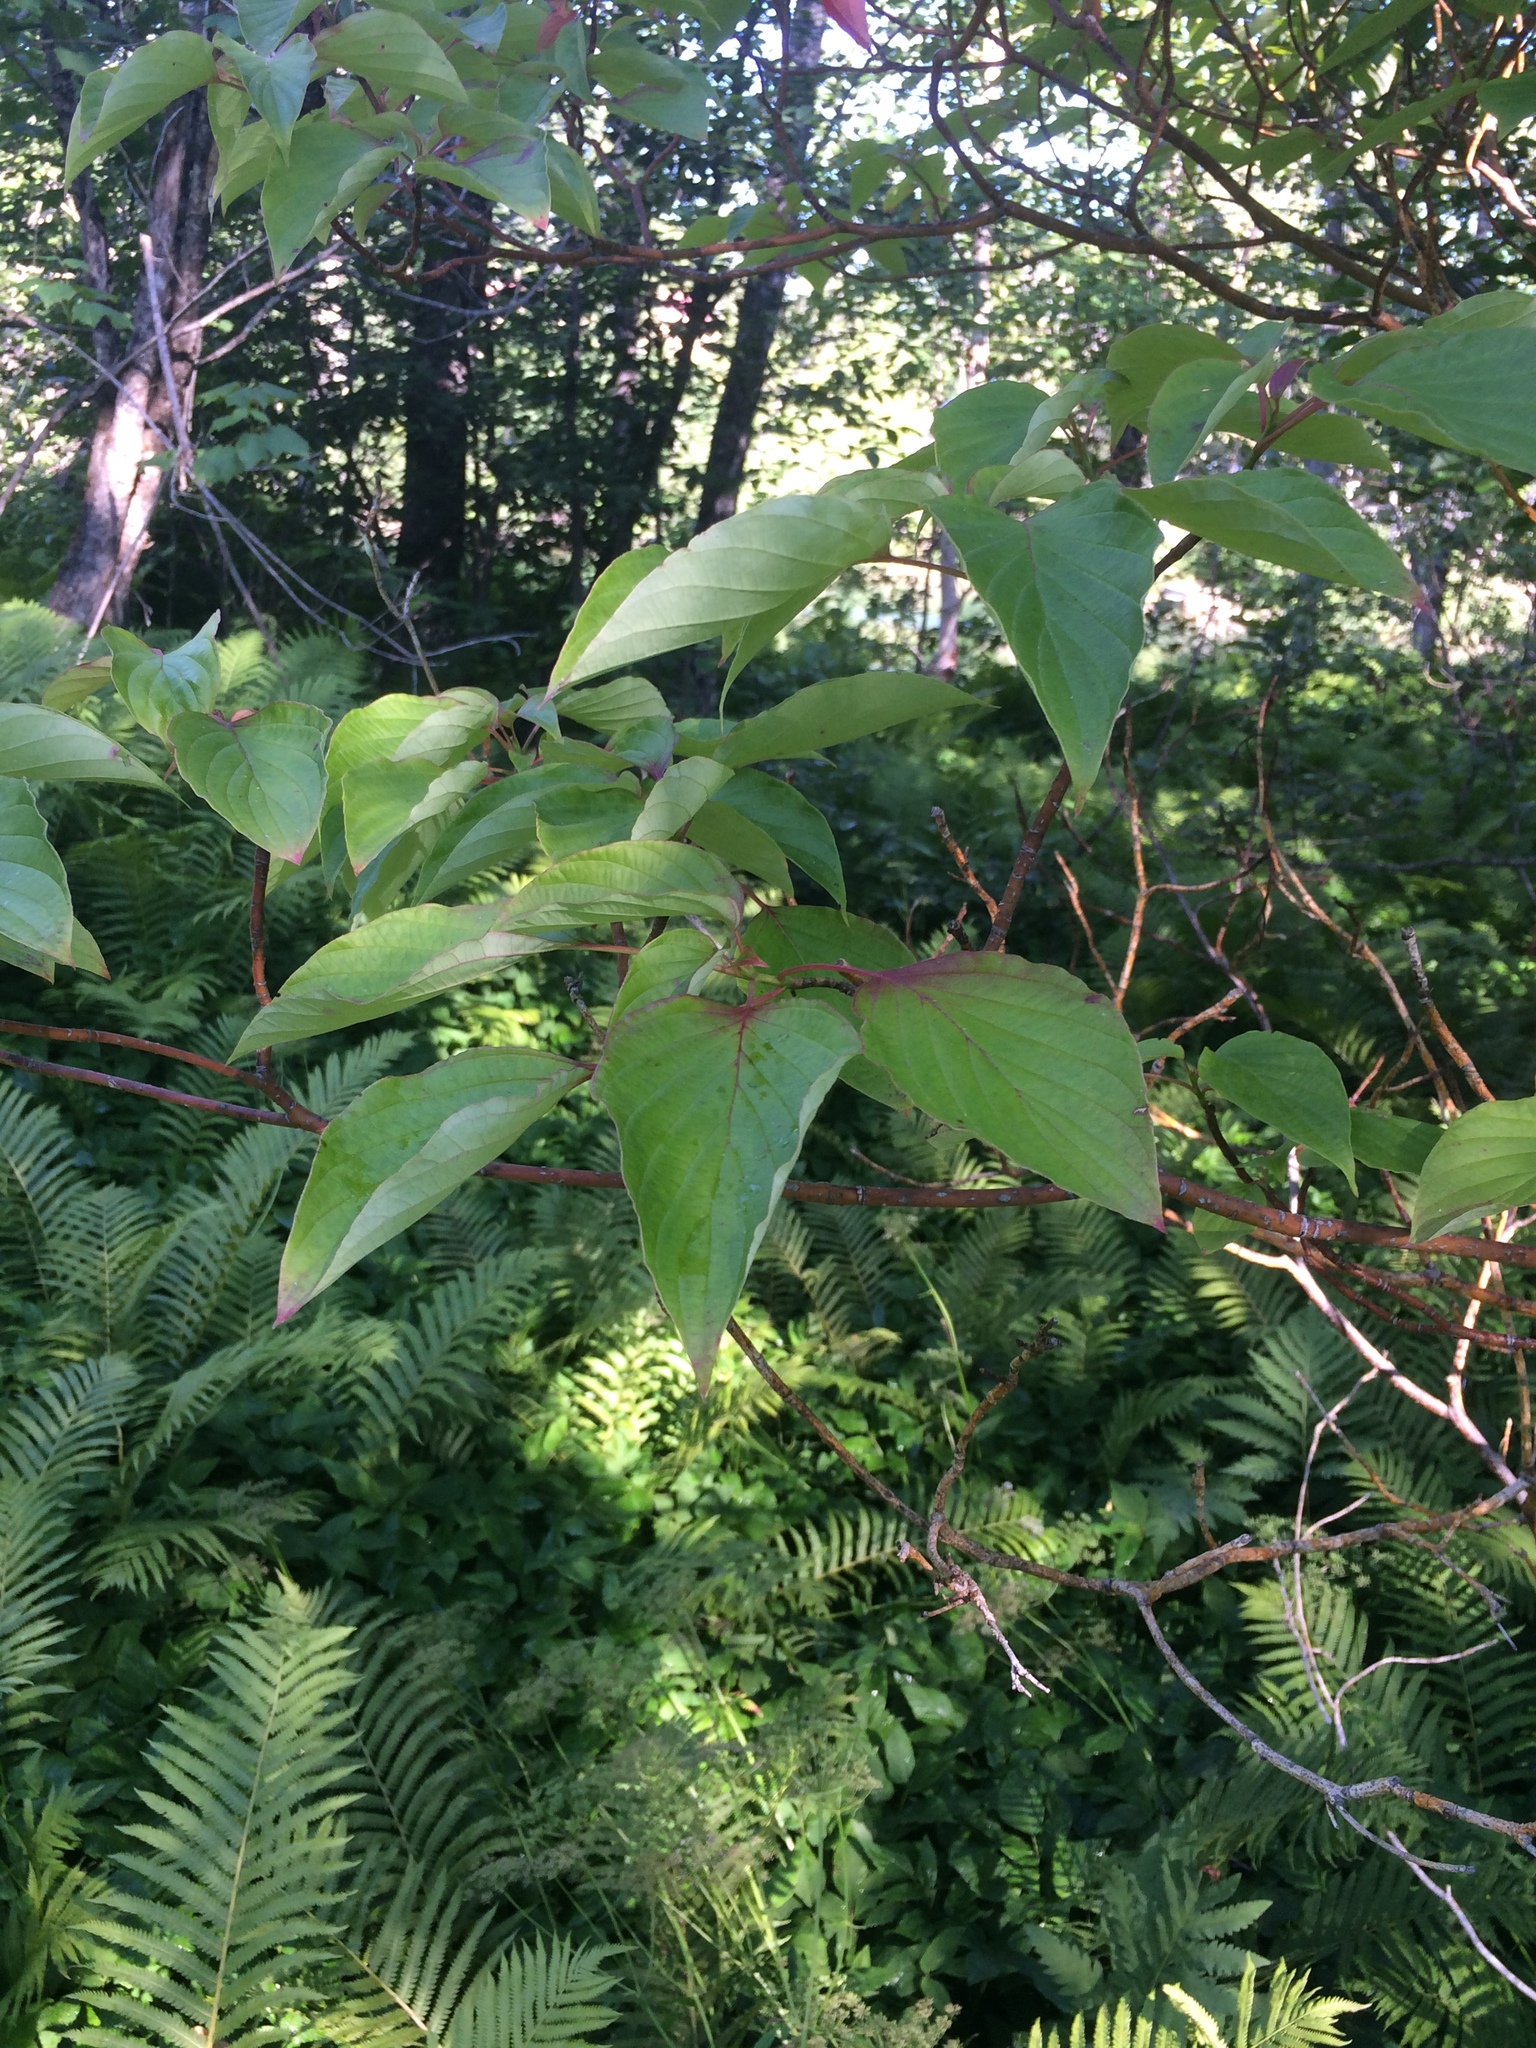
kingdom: Plantae
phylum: Tracheophyta
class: Magnoliopsida
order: Cornales
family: Cornaceae
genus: Cornus
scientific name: Cornus alternifolia
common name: Pagoda dogwood
